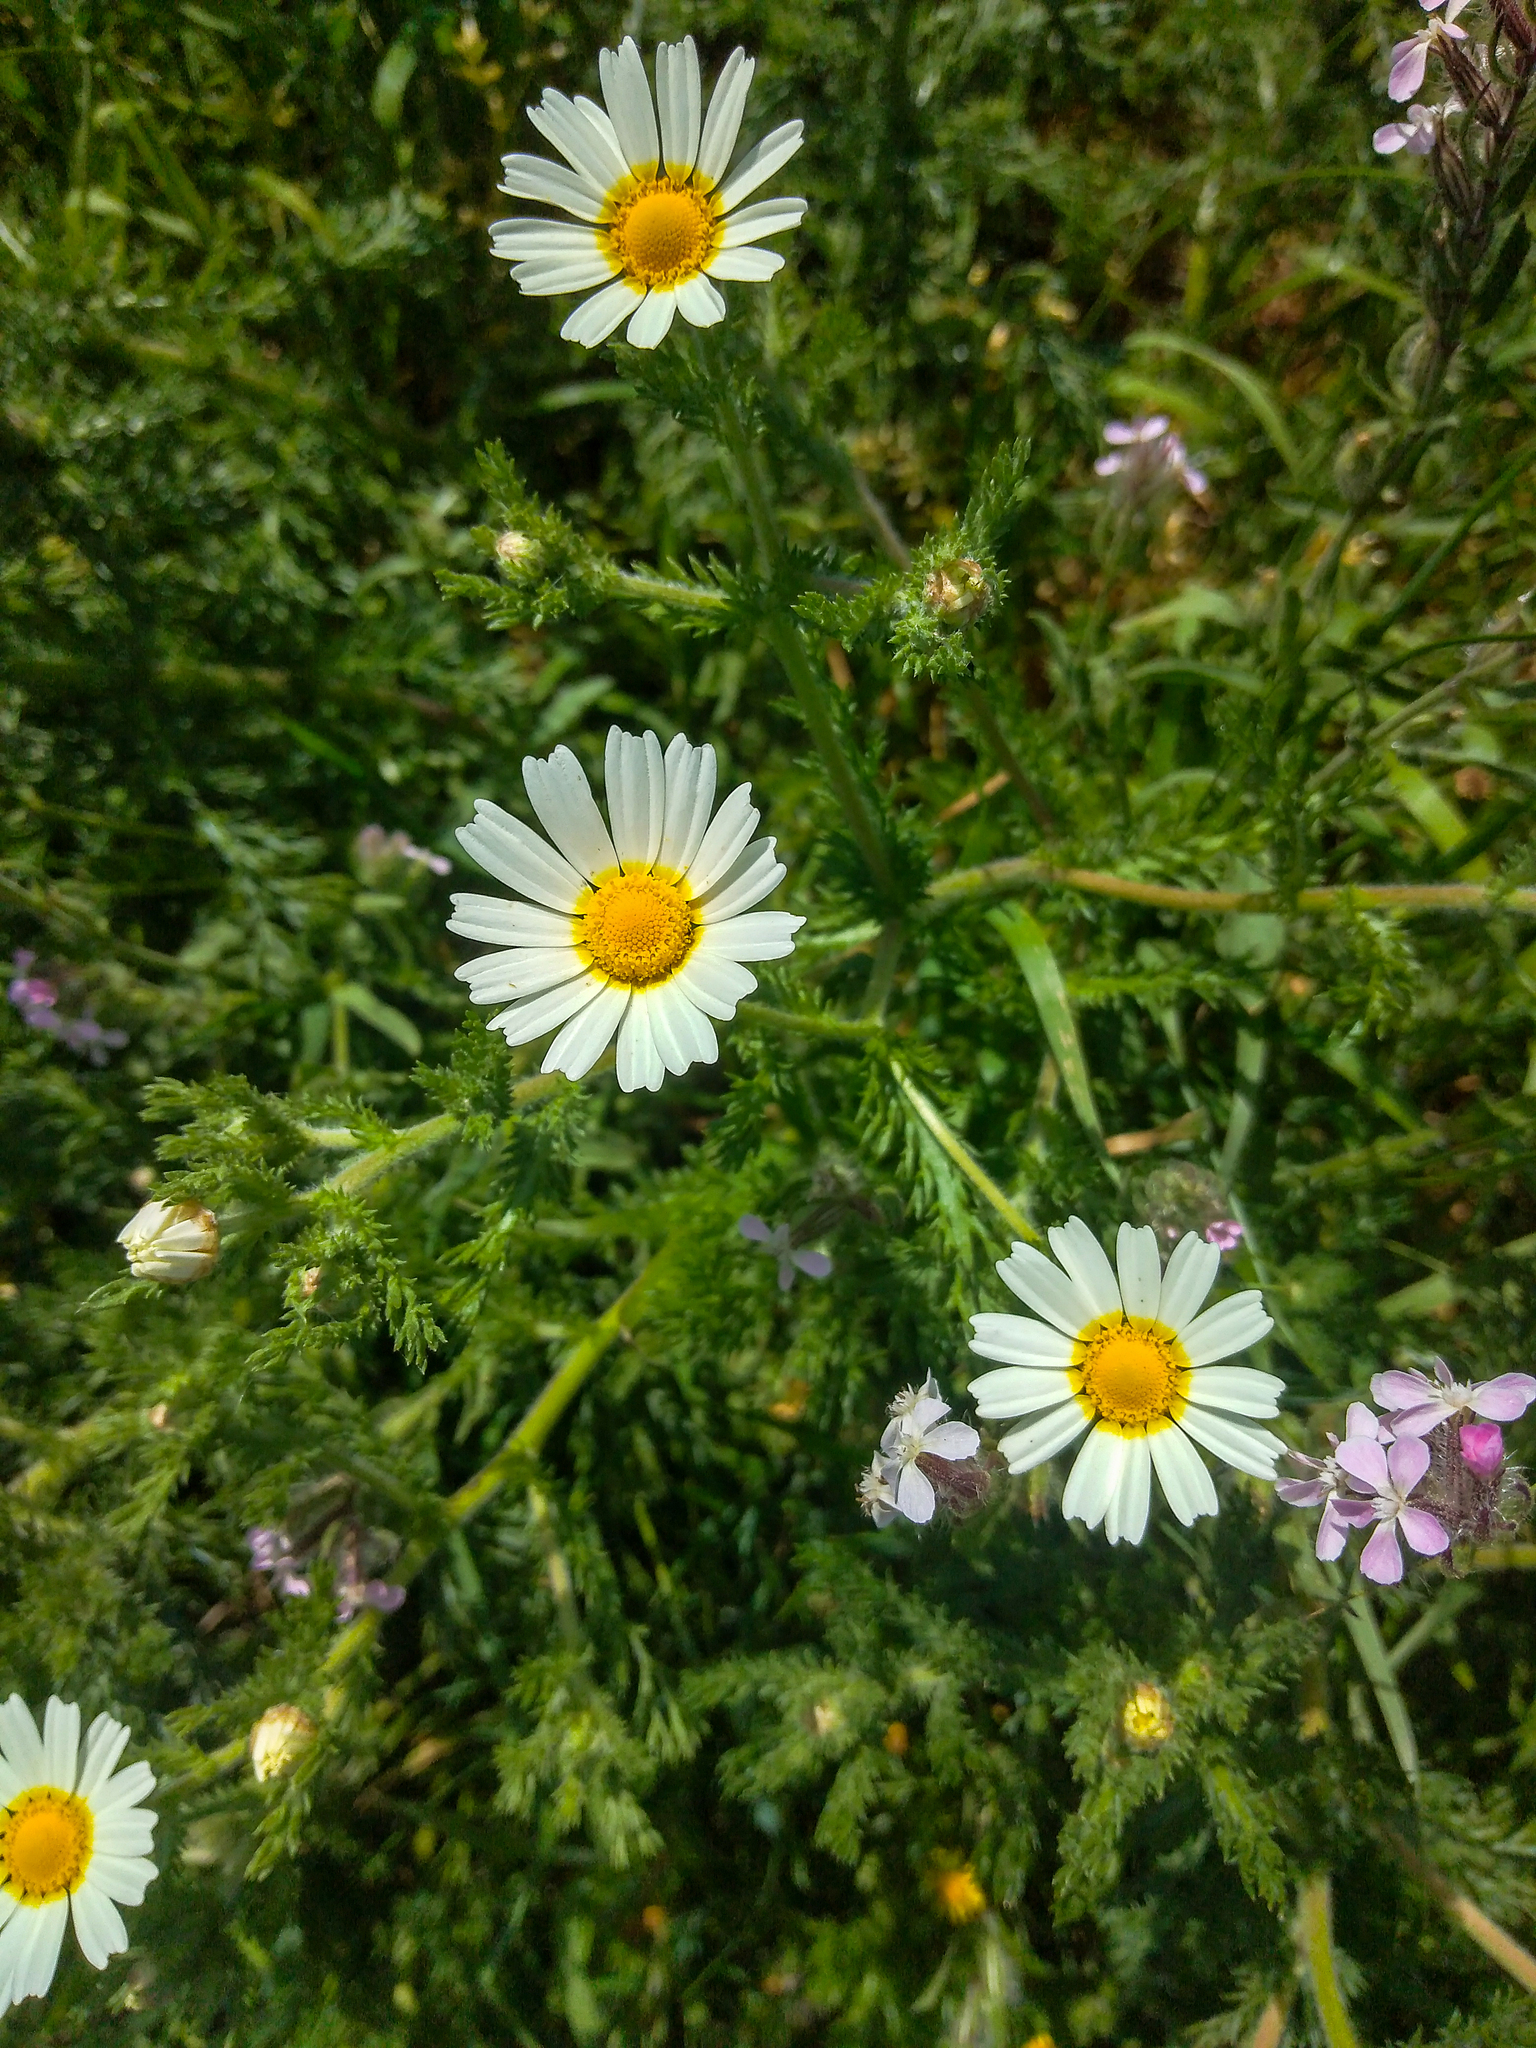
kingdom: Plantae
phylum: Tracheophyta
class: Magnoliopsida
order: Asterales
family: Asteraceae
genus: Cladanthus
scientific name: Cladanthus mixtus
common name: Weedy dogfennel
